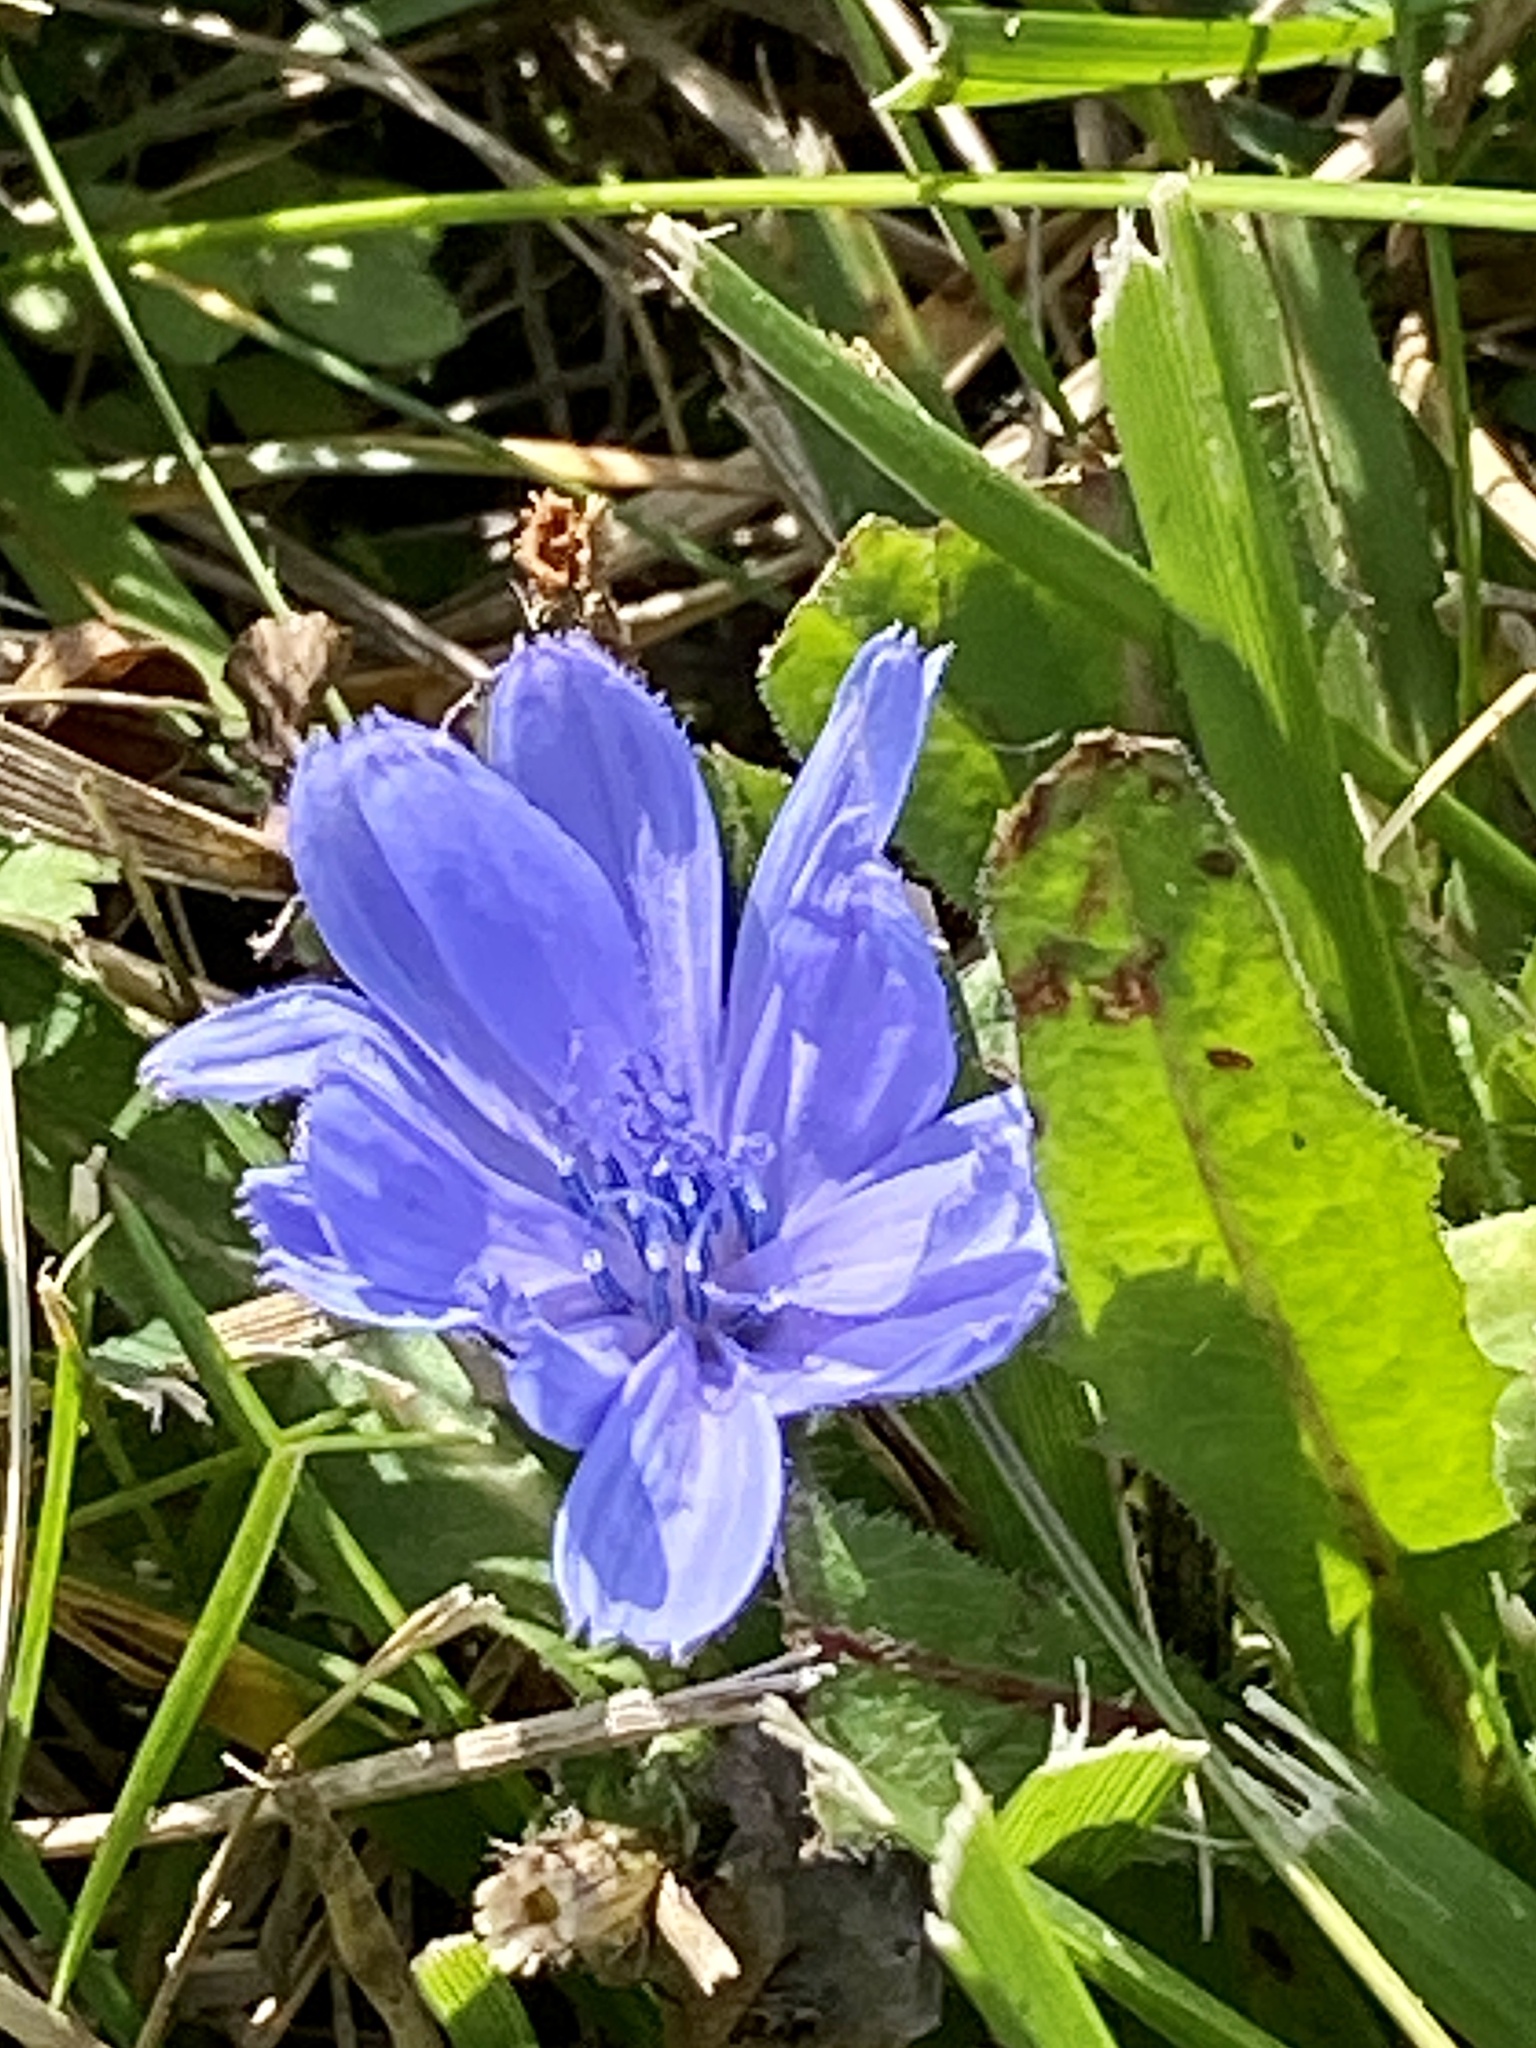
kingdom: Plantae
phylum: Tracheophyta
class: Magnoliopsida
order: Asterales
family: Asteraceae
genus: Cichorium
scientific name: Cichorium intybus
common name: Chicory
